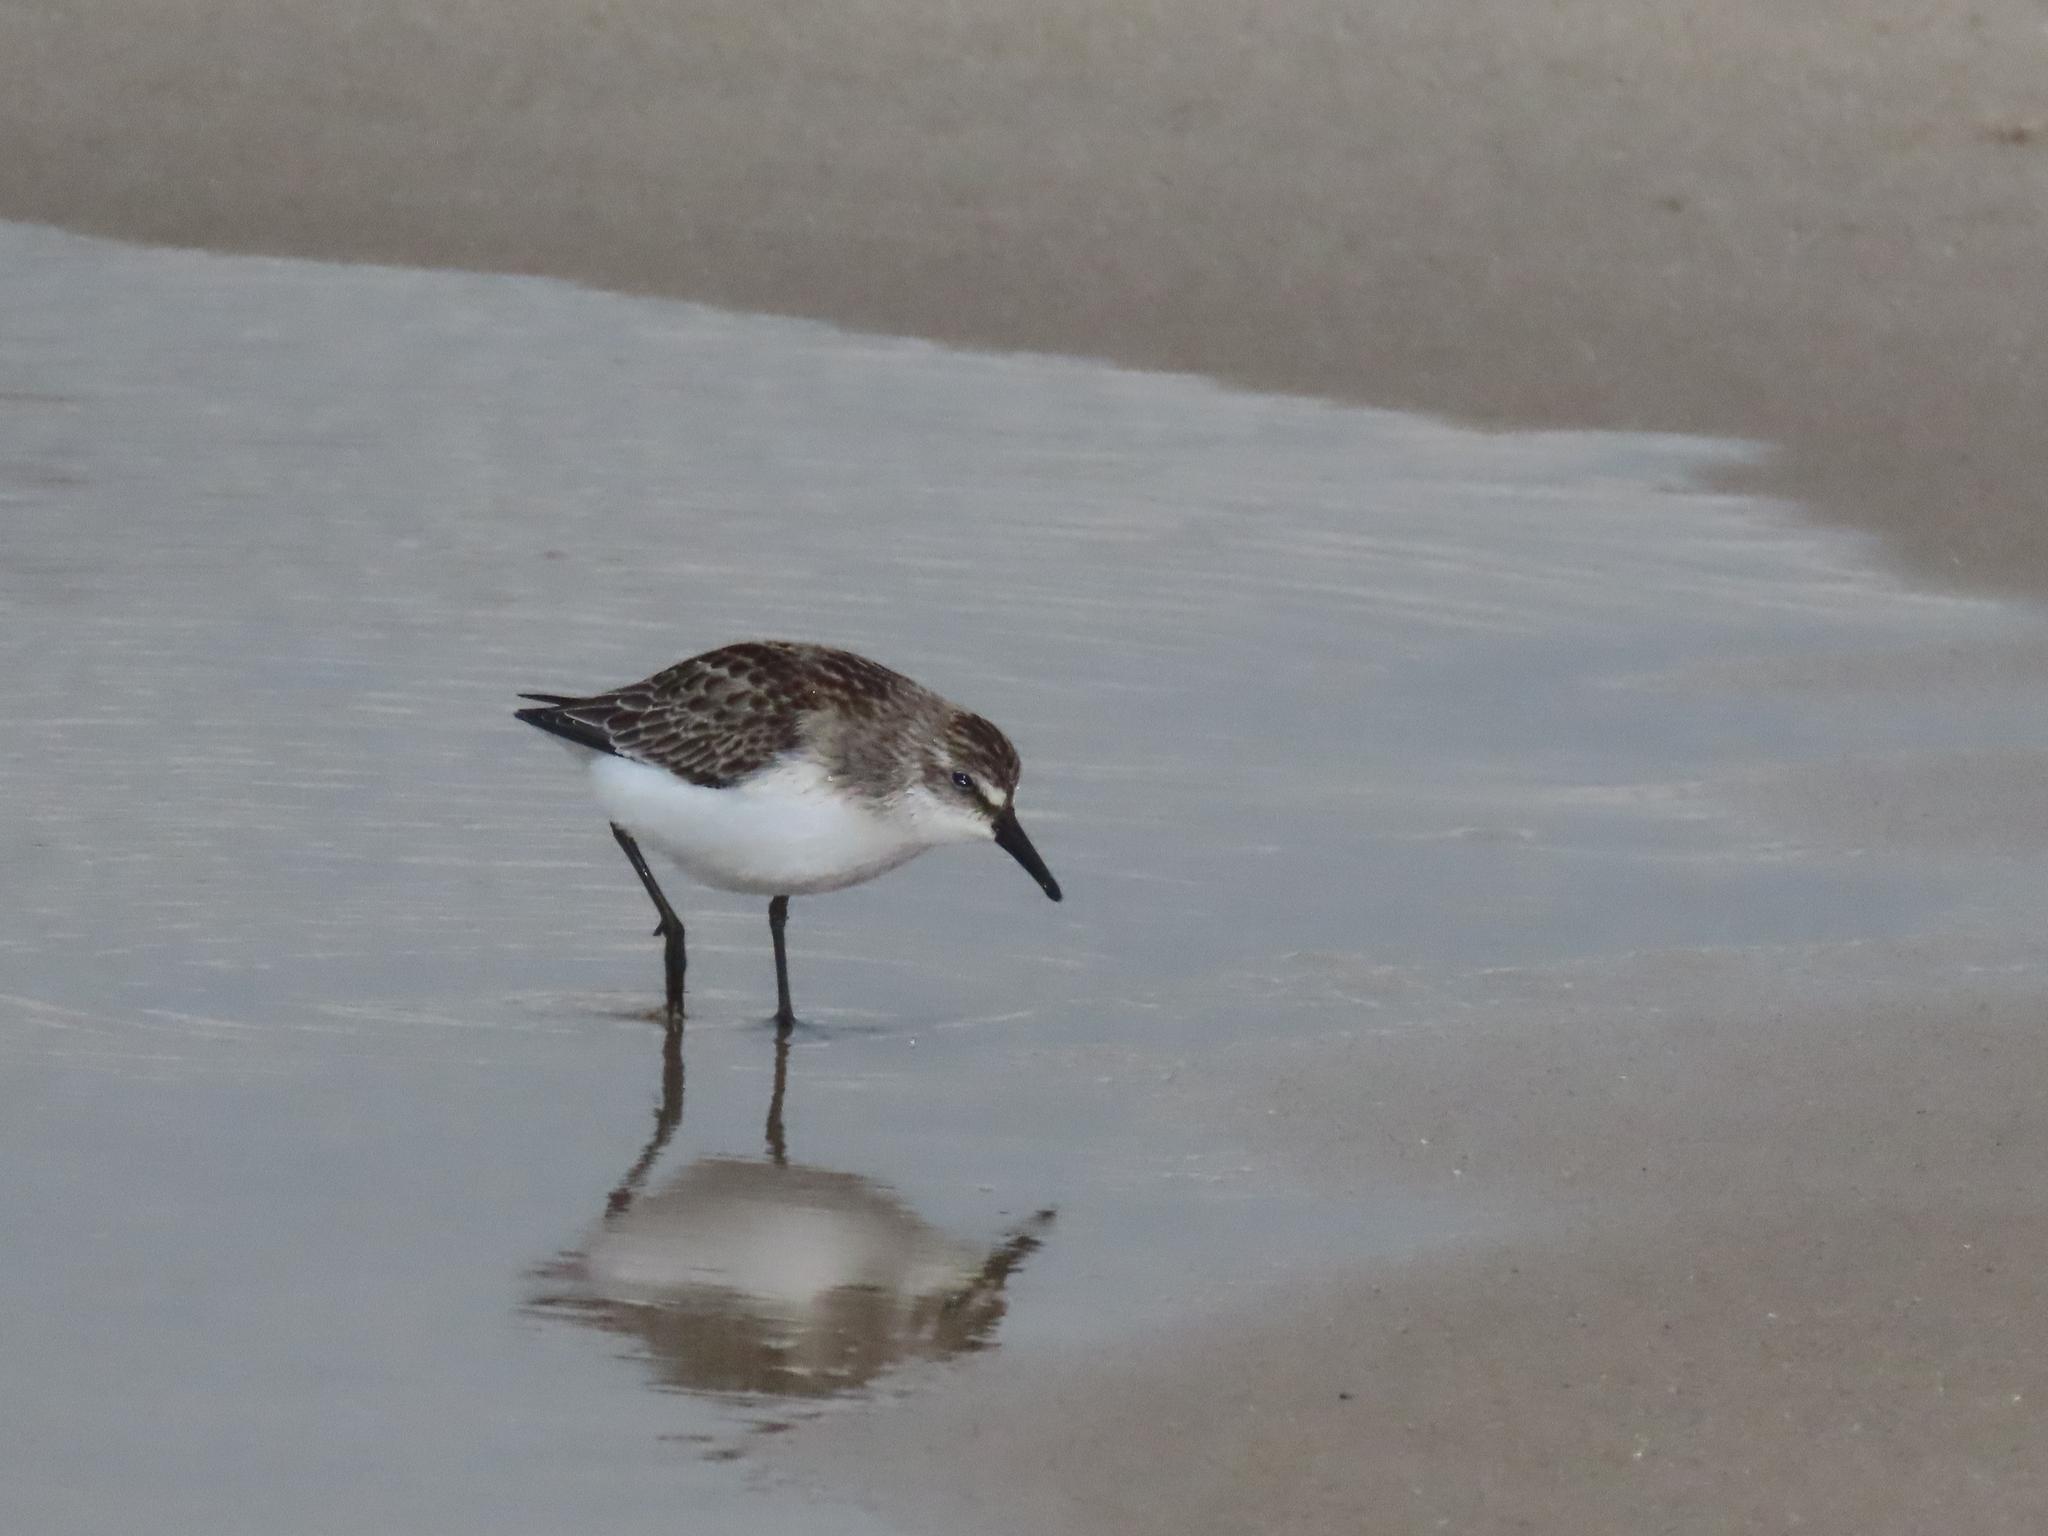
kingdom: Animalia
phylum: Chordata
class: Aves
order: Charadriiformes
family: Scolopacidae
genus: Calidris
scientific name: Calidris pusilla
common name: Semipalmated sandpiper
